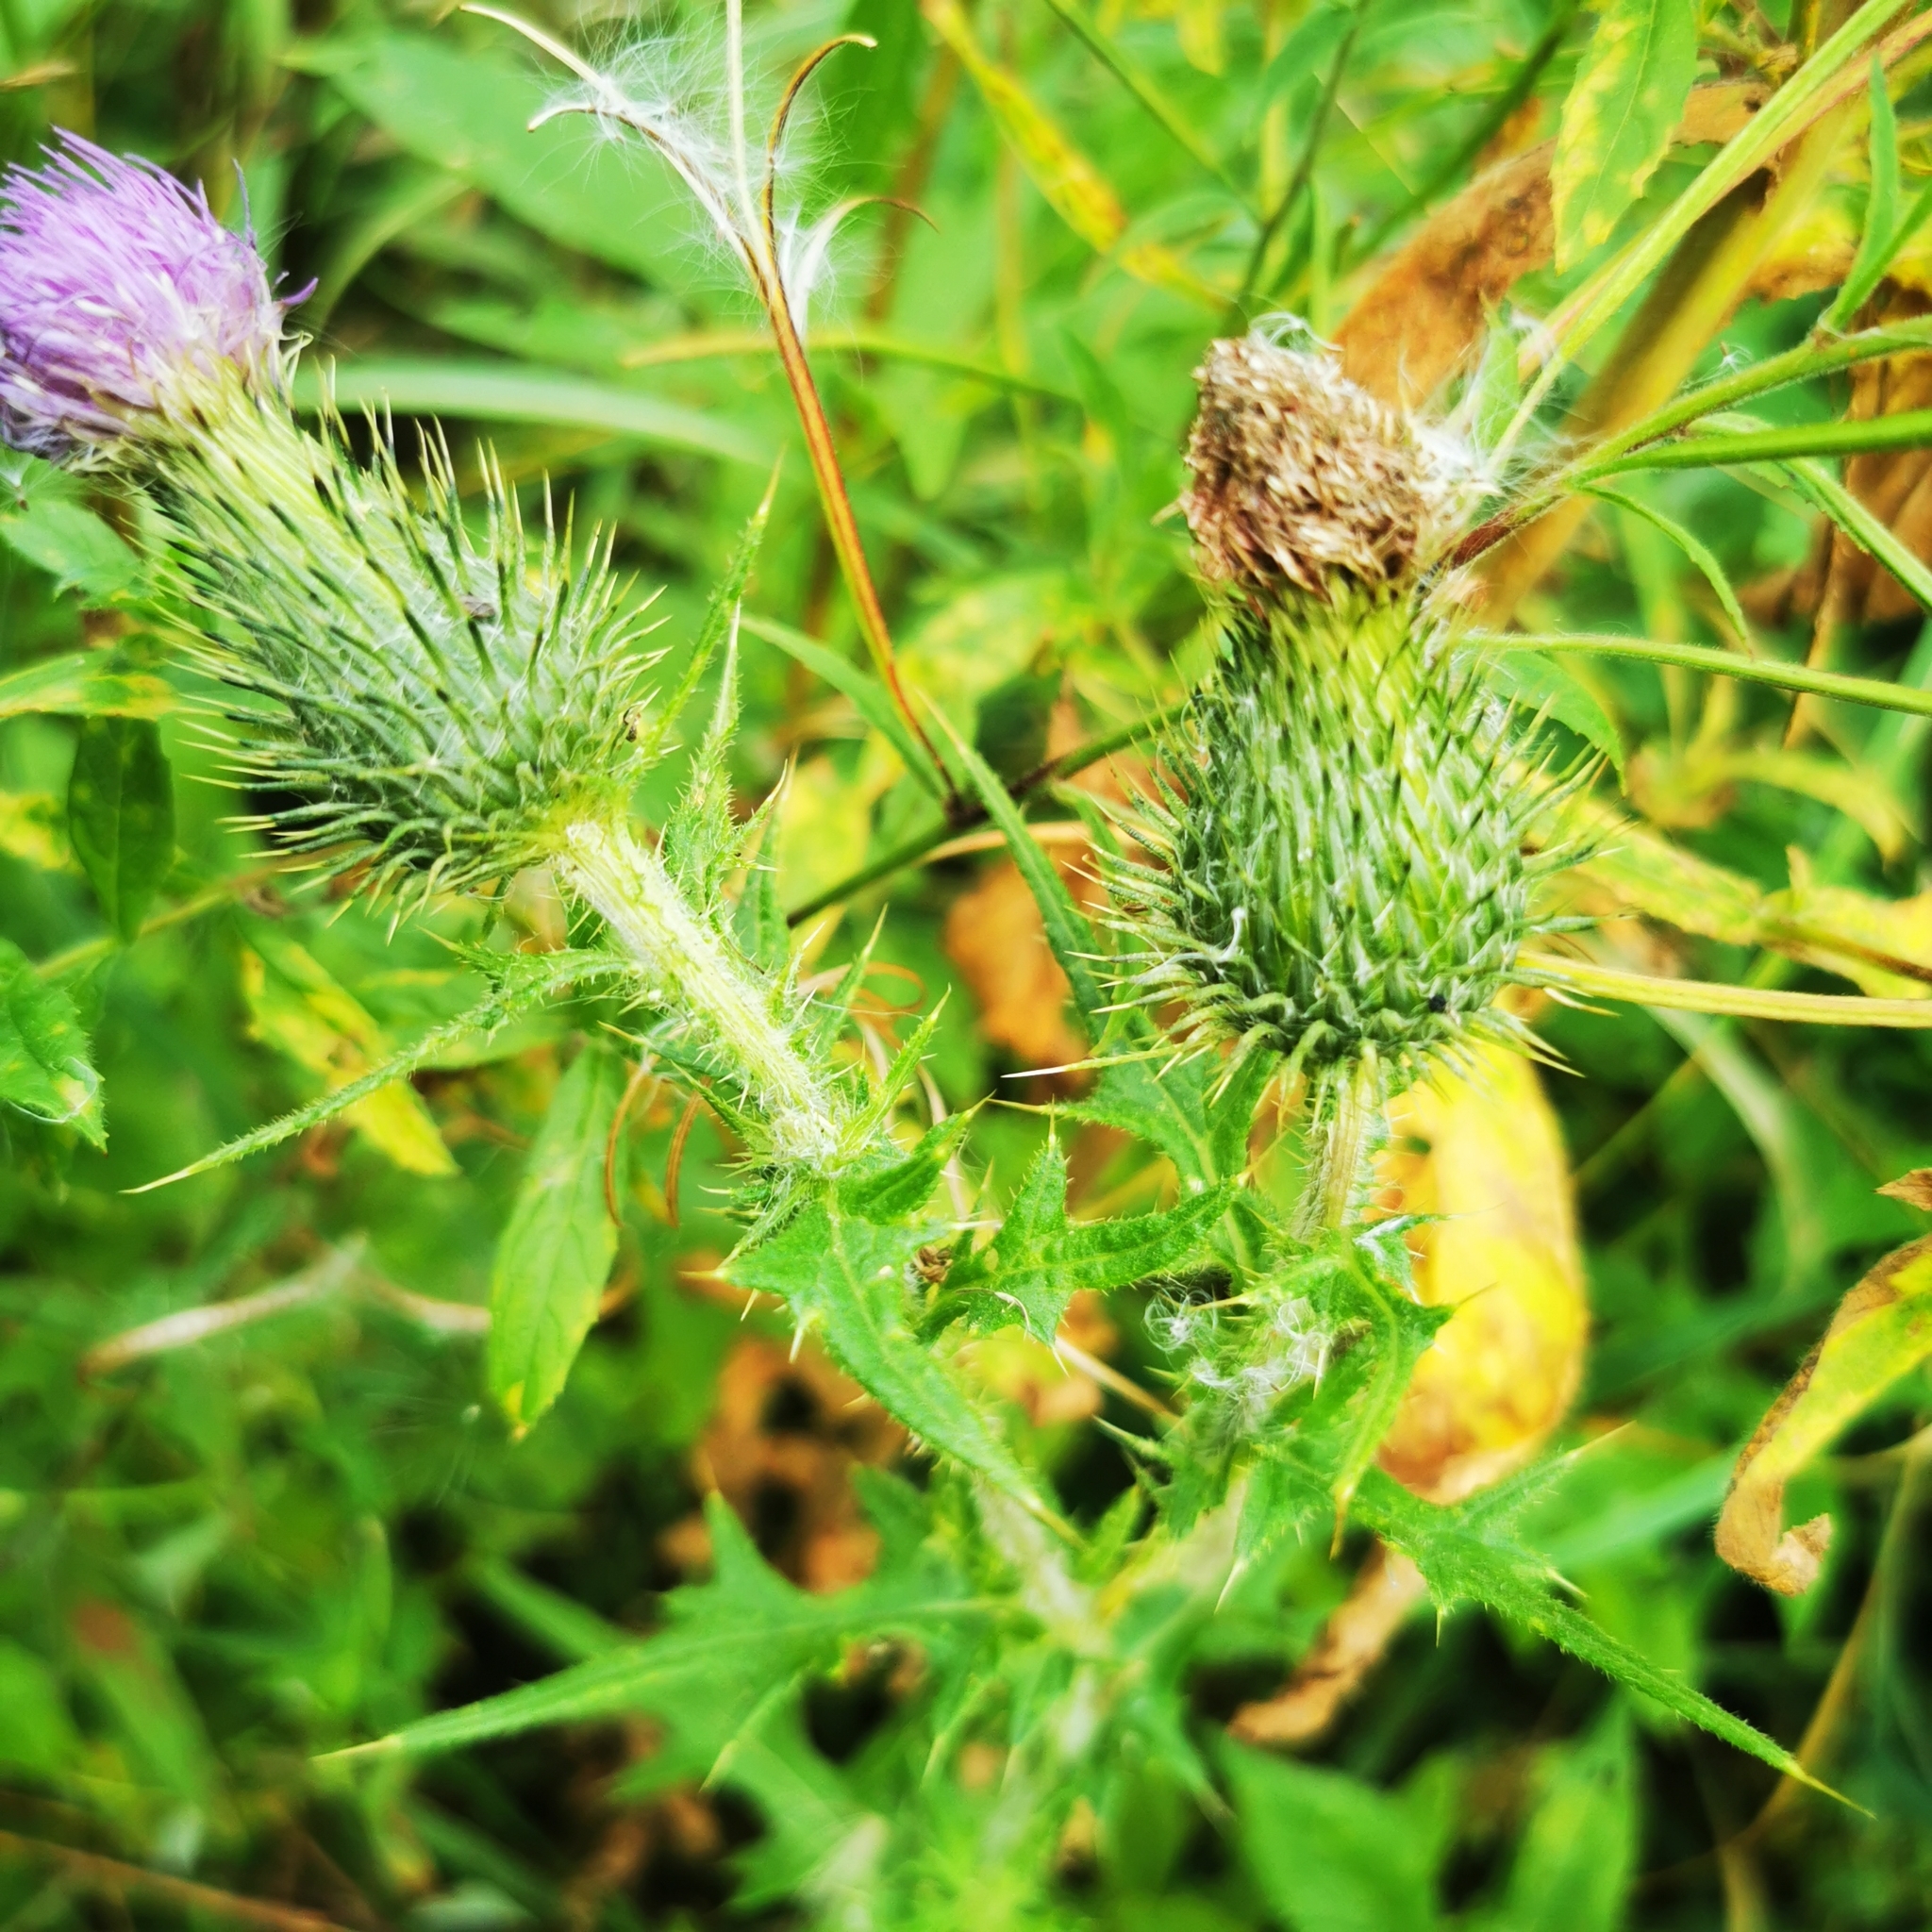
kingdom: Plantae
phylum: Tracheophyta
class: Magnoliopsida
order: Asterales
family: Asteraceae
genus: Cirsium
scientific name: Cirsium vulgare
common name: Bull thistle
